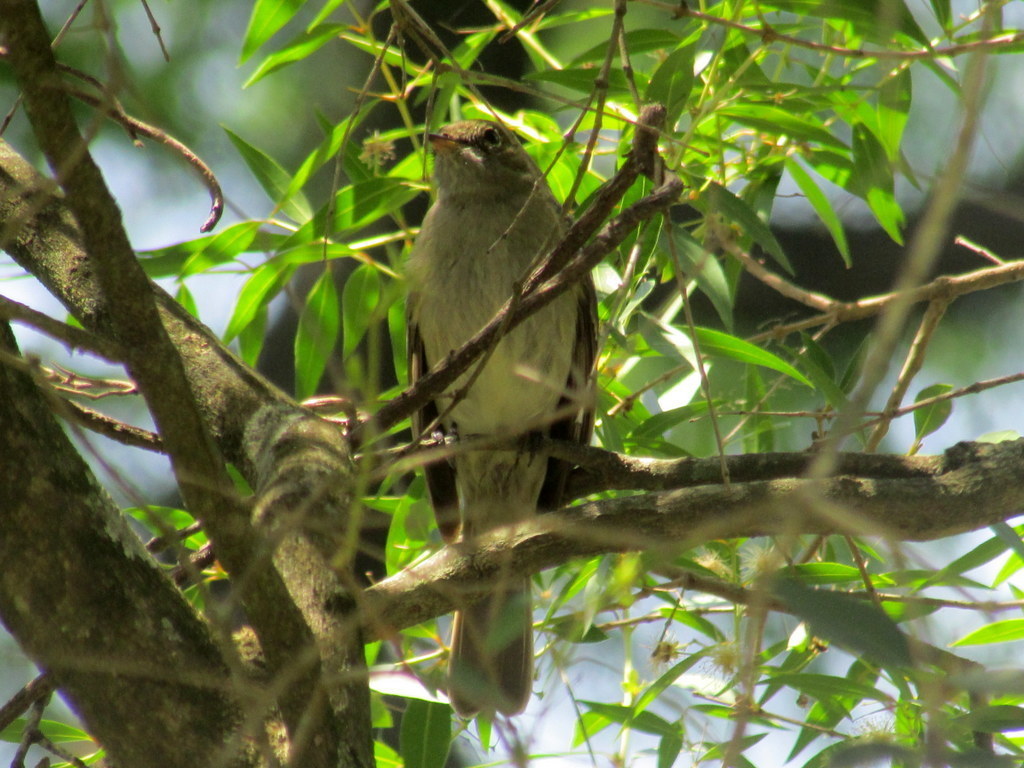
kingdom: Animalia
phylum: Chordata
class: Aves
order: Passeriformes
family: Tyrannidae
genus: Elaenia
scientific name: Elaenia mesoleuca
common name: Olivaceous elaenia
